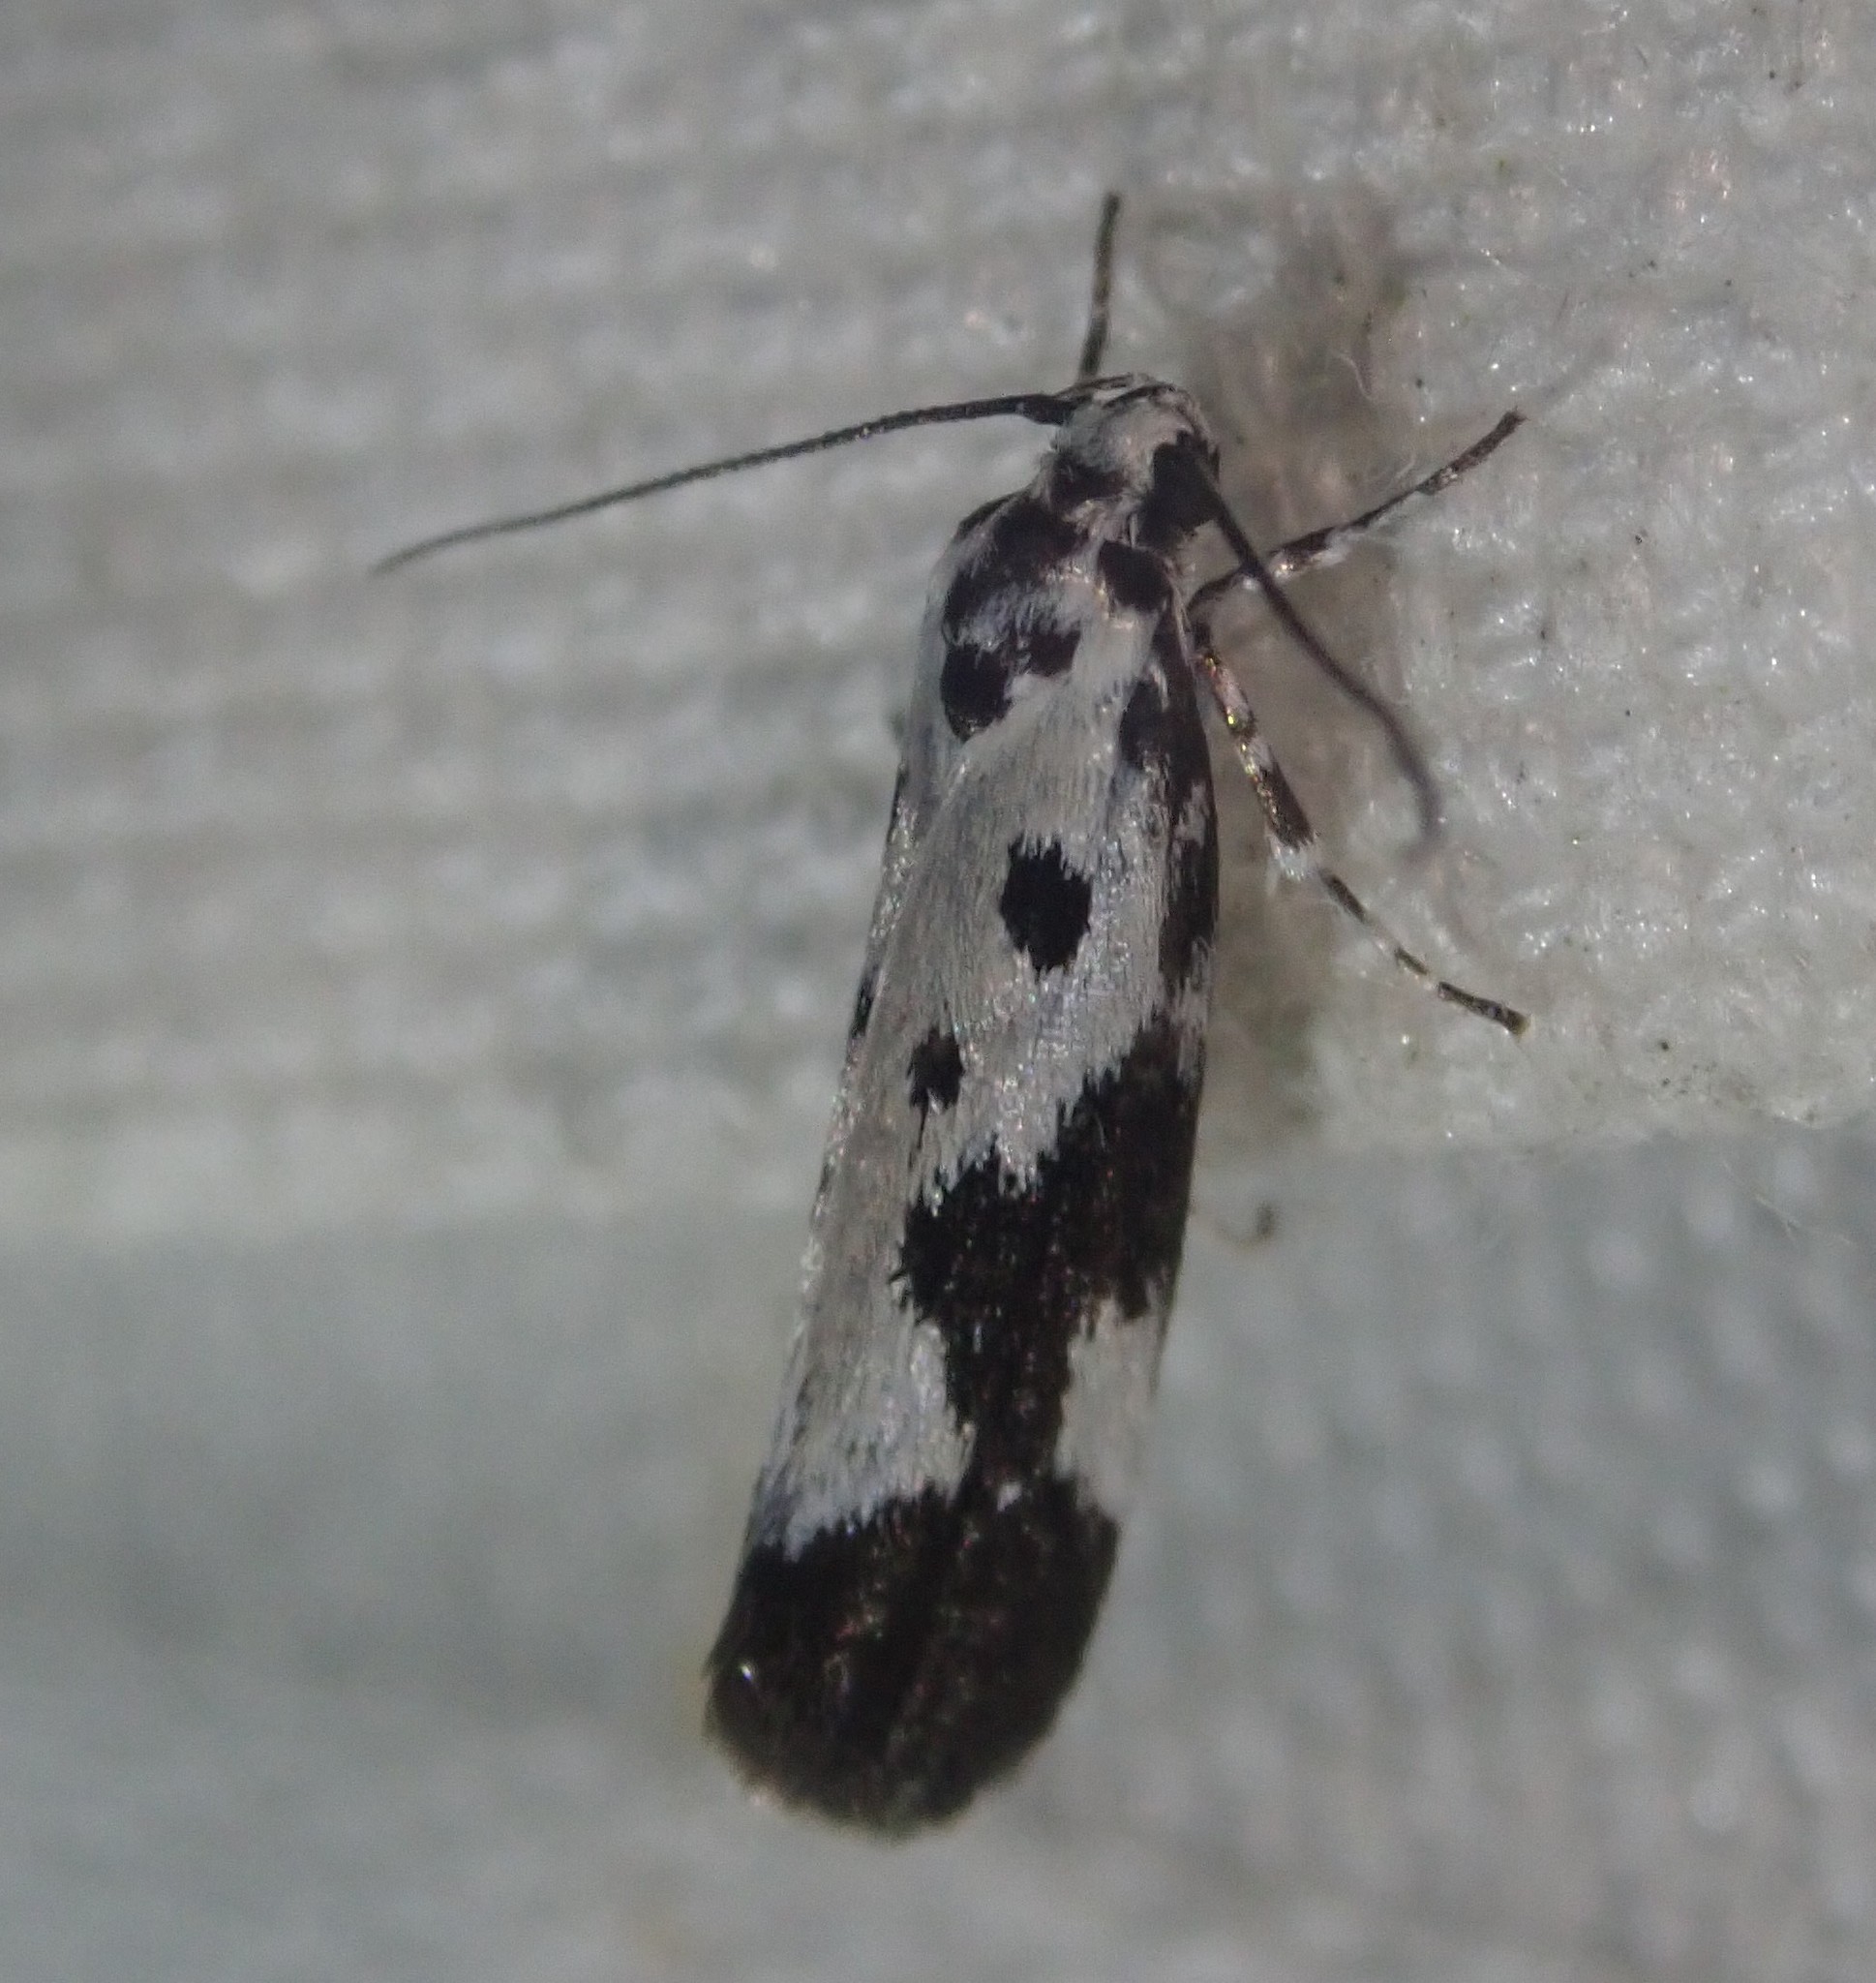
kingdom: Animalia
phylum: Arthropoda
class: Insecta
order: Lepidoptera
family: Ethmiidae
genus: Ethmia
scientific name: Ethmia quadrillella
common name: Comfrey ermel
